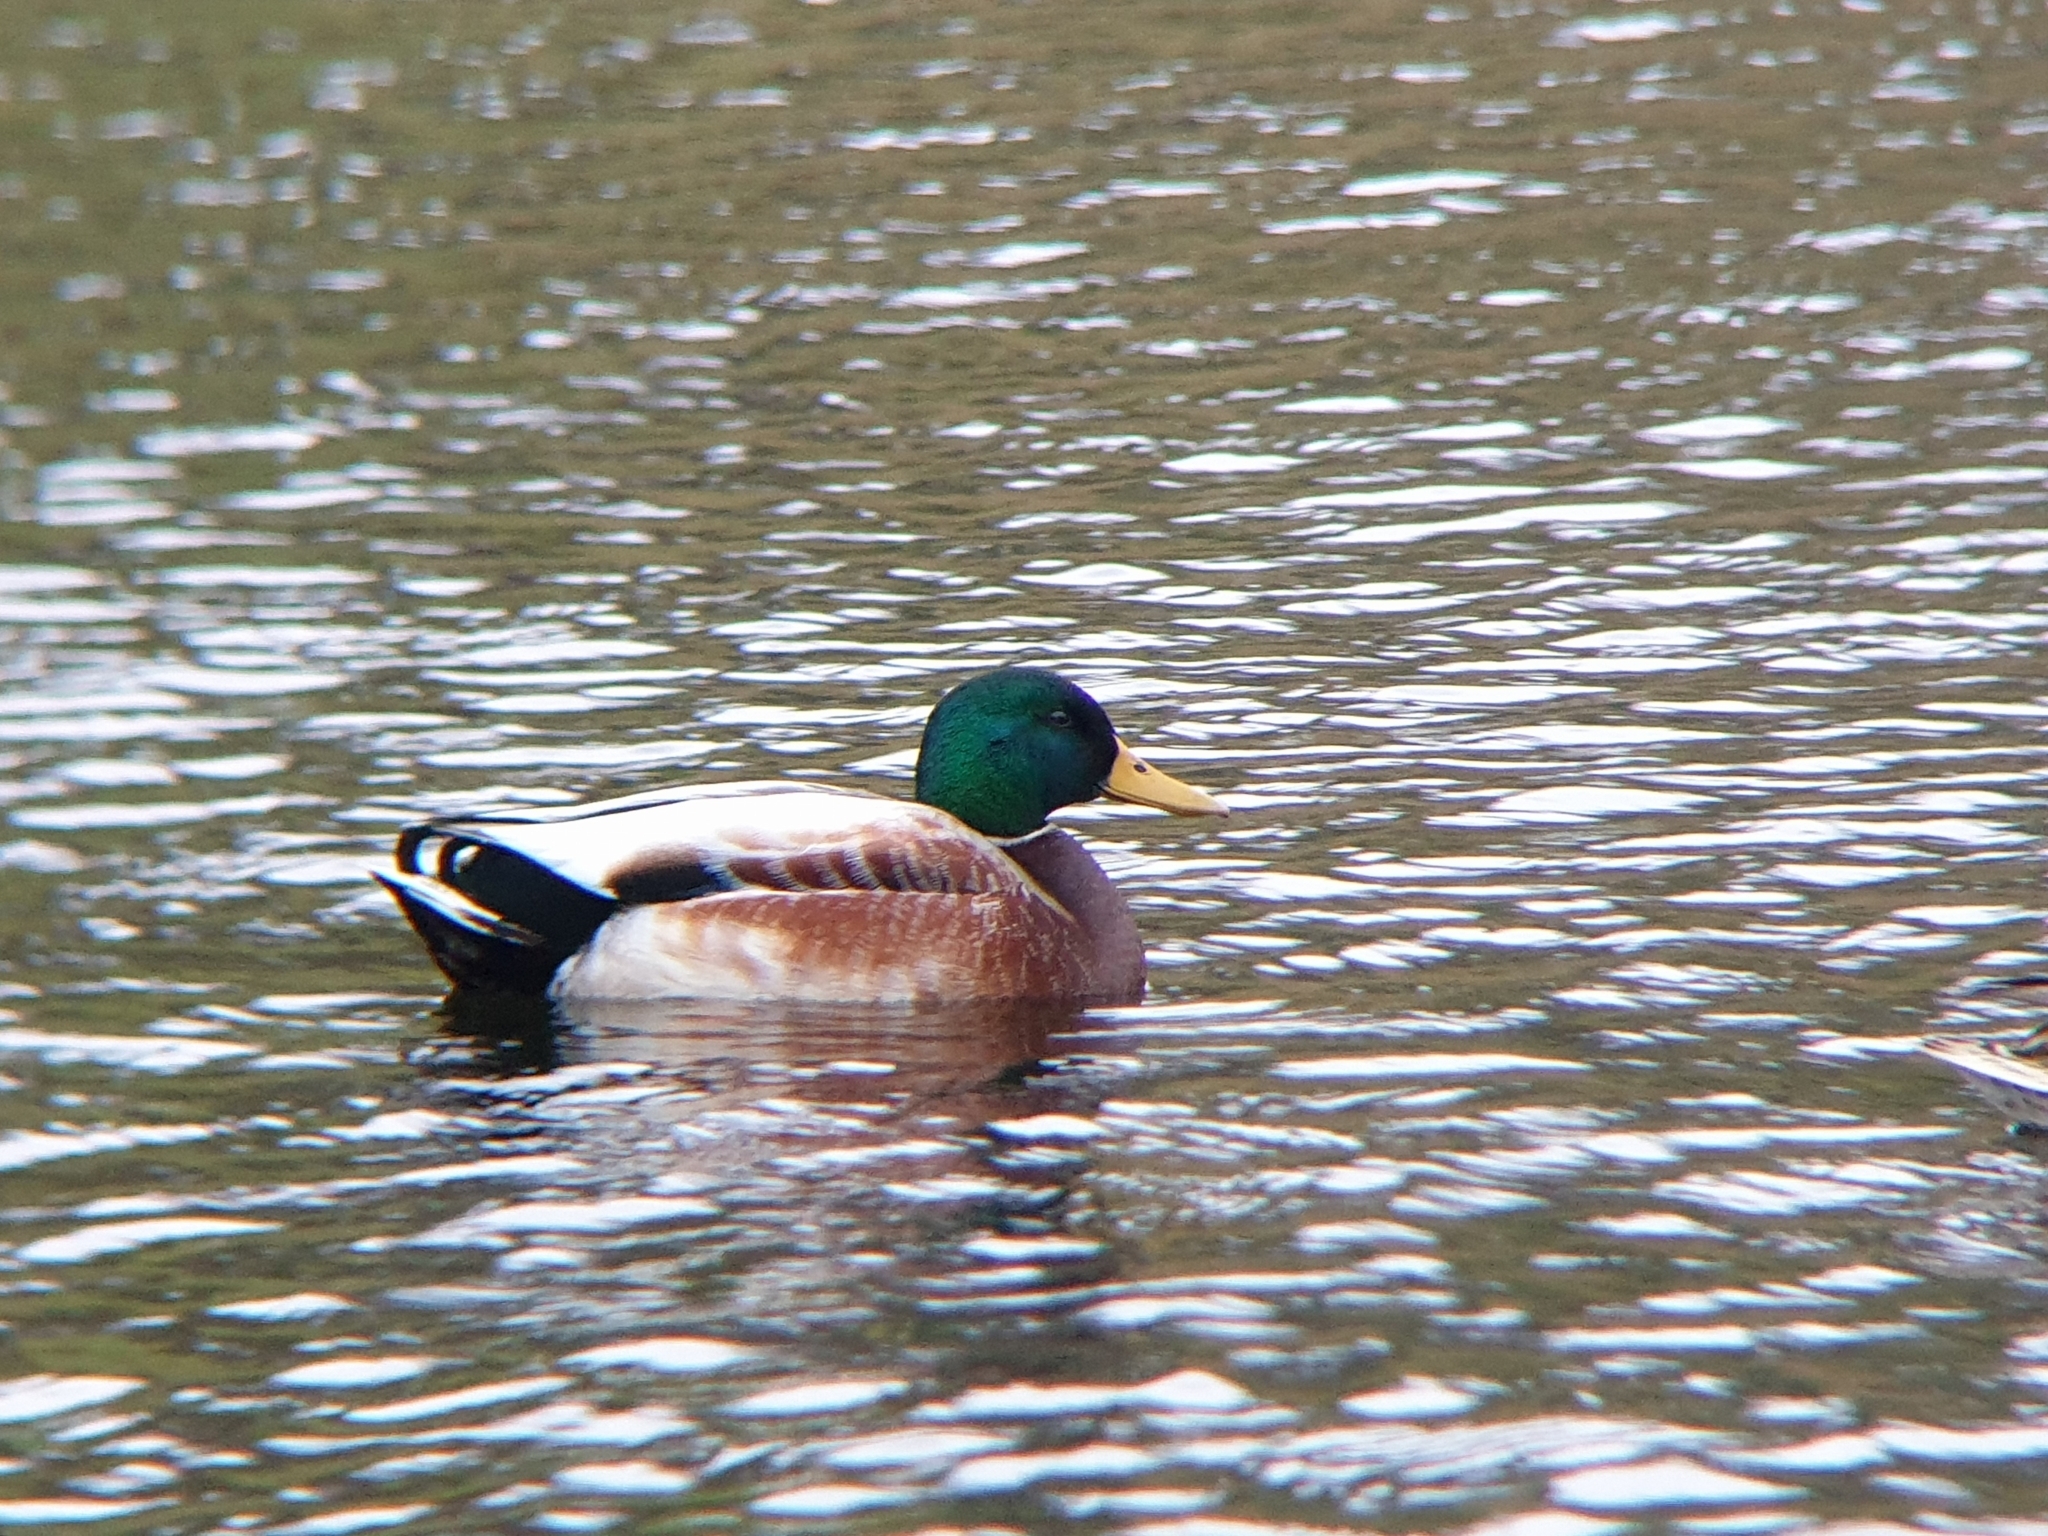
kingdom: Animalia
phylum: Chordata
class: Aves
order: Anseriformes
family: Anatidae
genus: Anas
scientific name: Anas platyrhynchos
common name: Mallard
